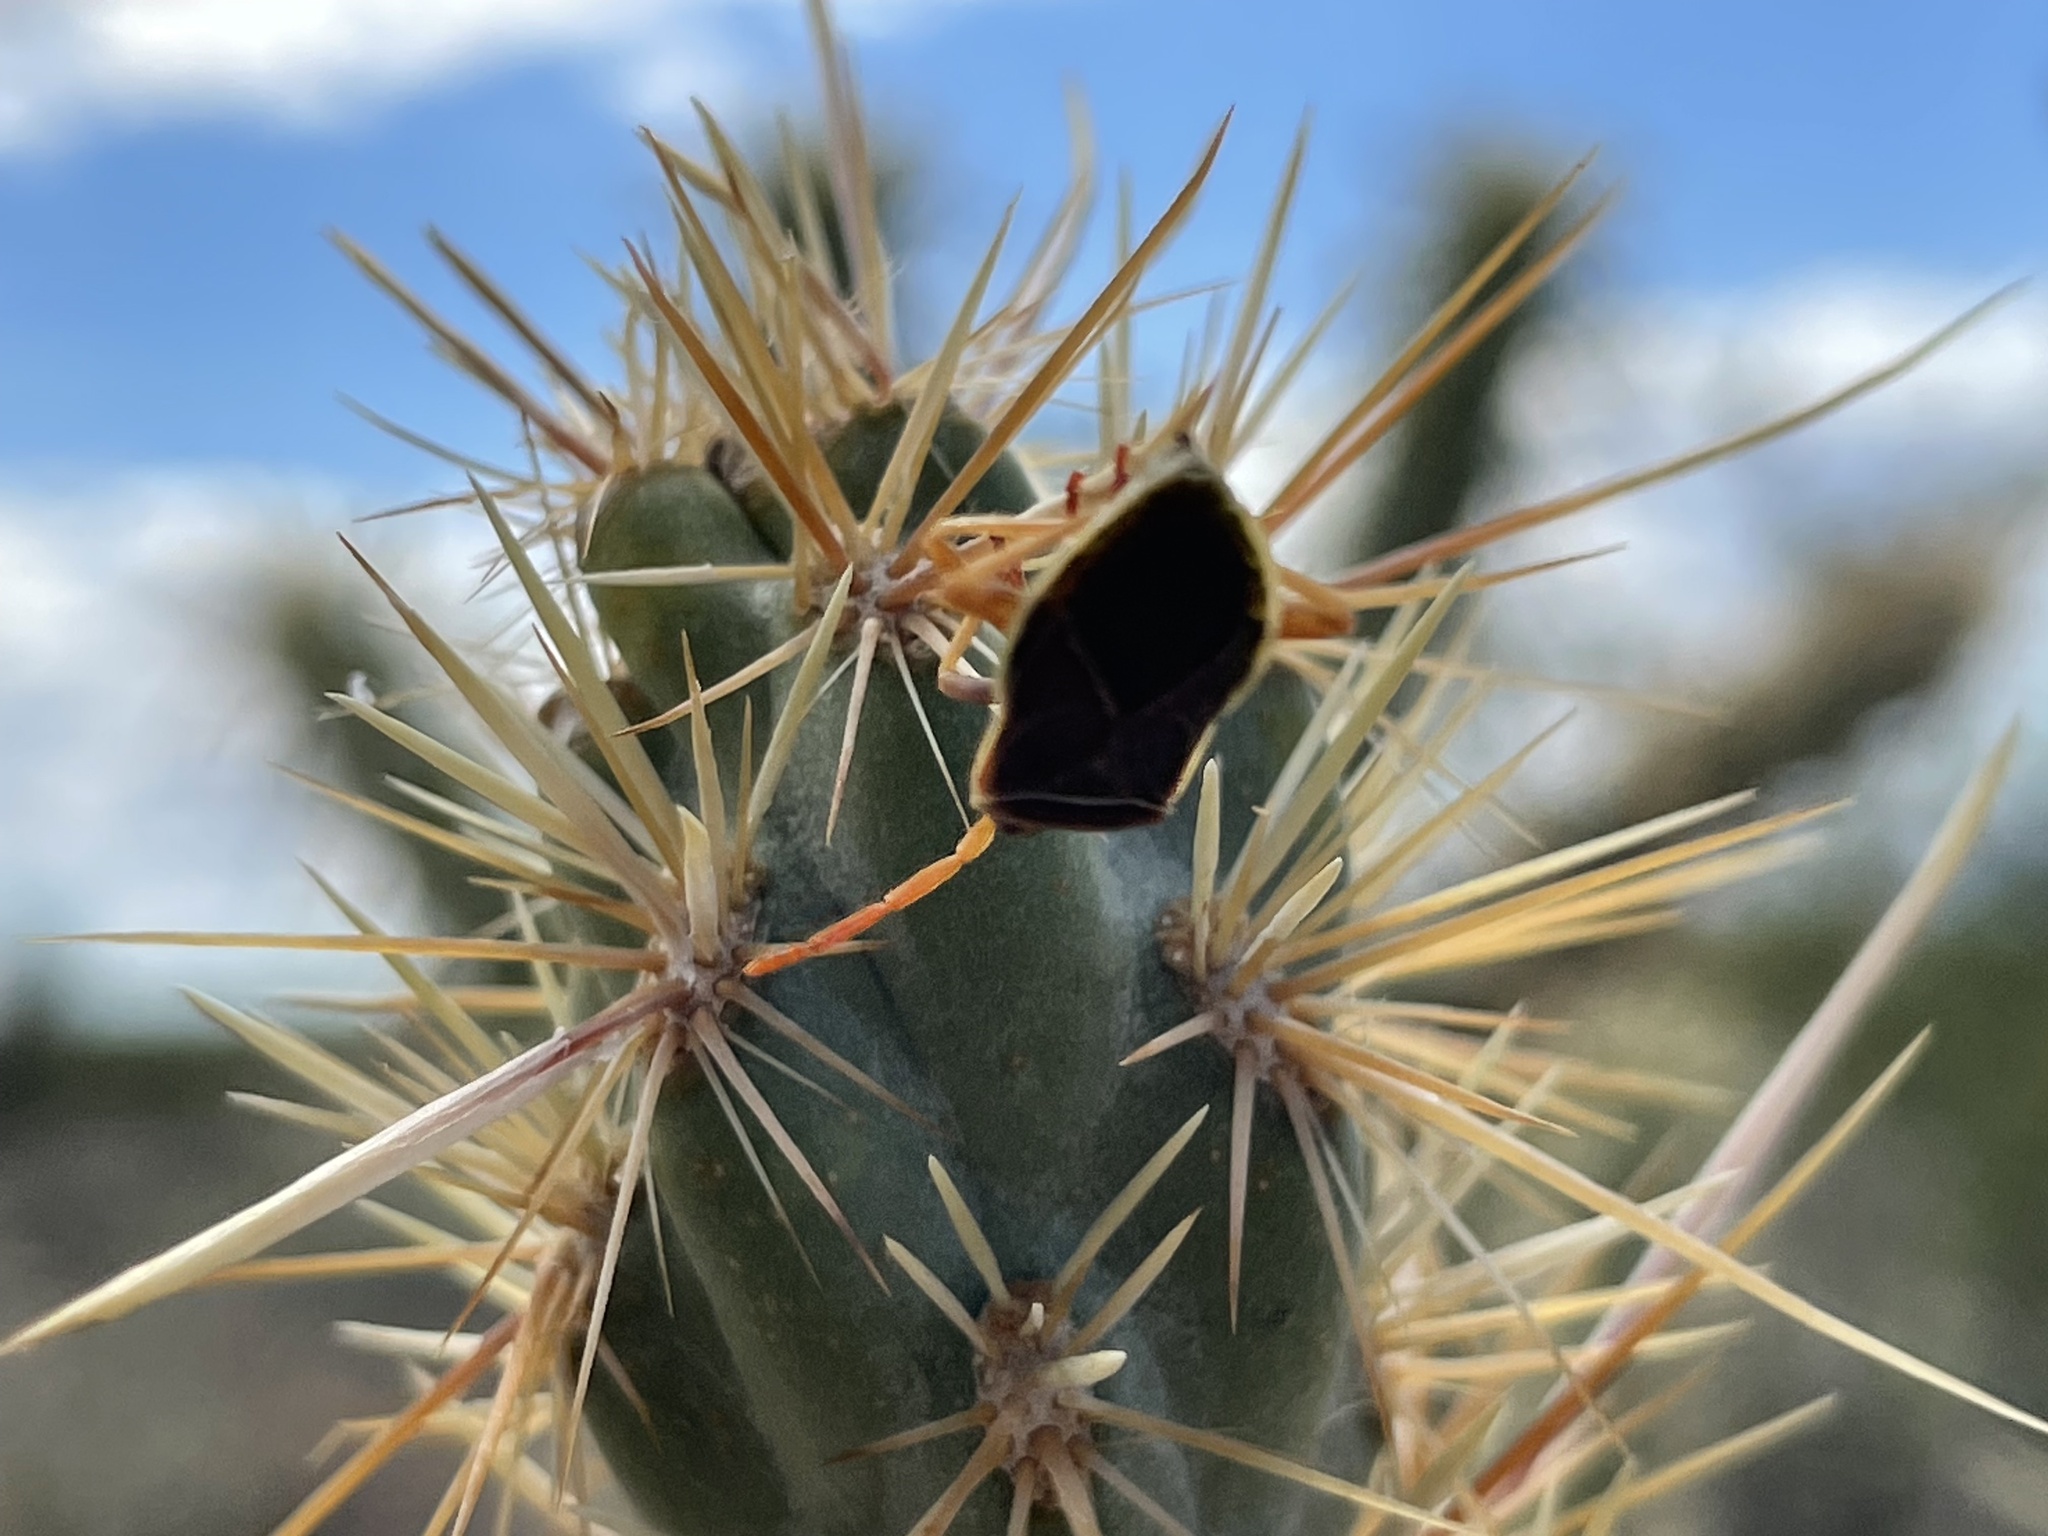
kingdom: Animalia
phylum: Arthropoda
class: Insecta
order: Hemiptera
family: Coreidae
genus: Chelinidea
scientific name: Chelinidea vittiger
